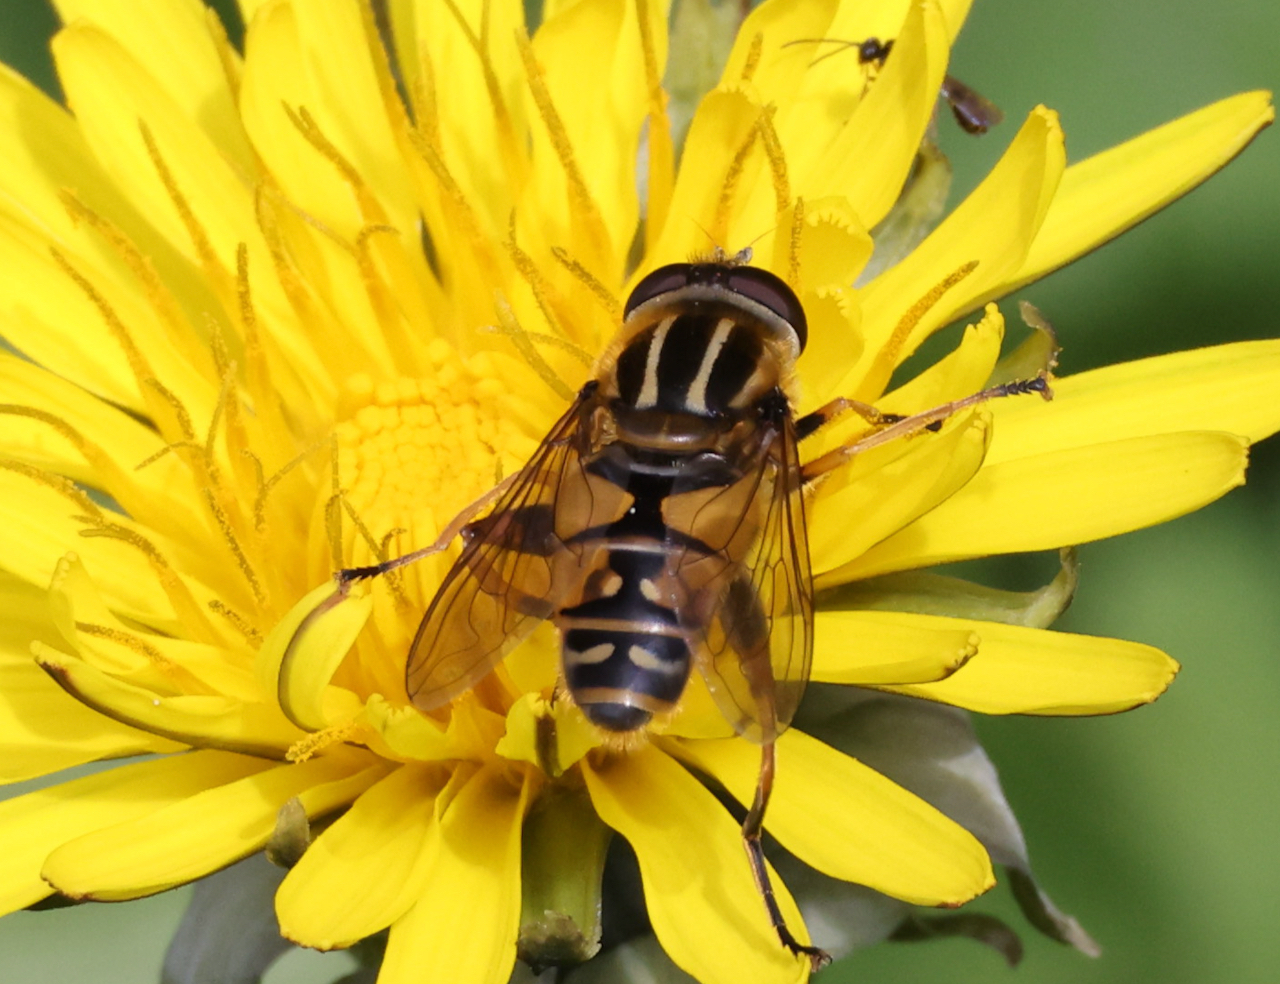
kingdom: Animalia
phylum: Arthropoda
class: Insecta
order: Diptera
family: Syrphidae
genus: Helophilus
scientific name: Helophilus pendulus
